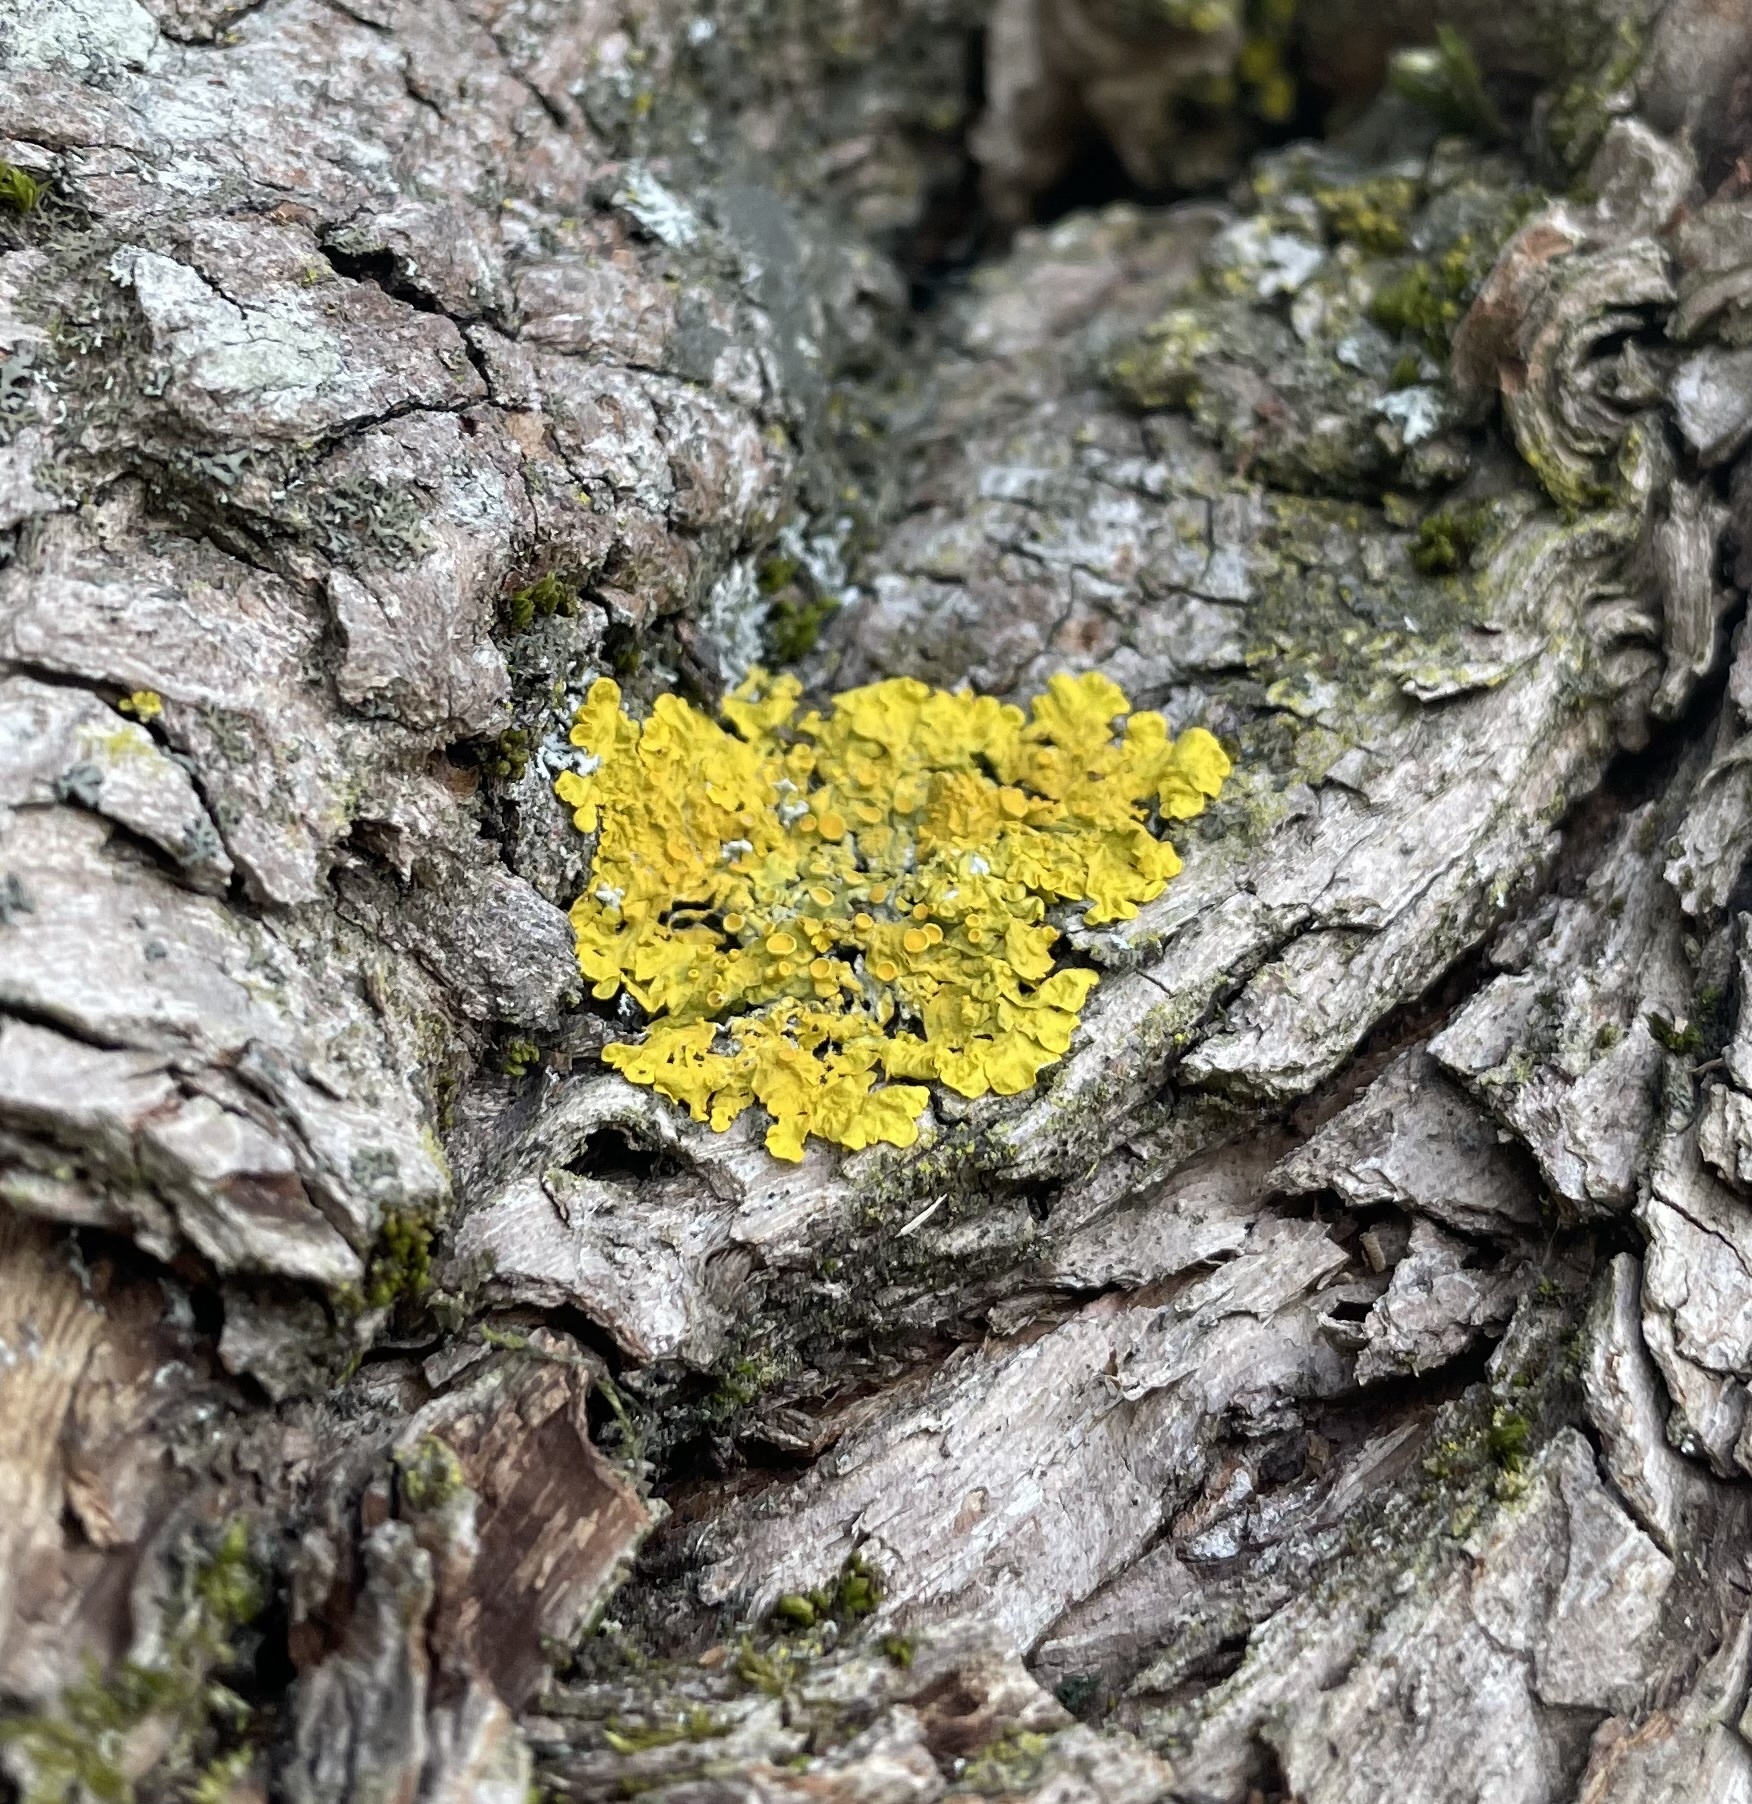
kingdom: Fungi
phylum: Ascomycota
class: Lecanoromycetes
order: Teloschistales
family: Teloschistaceae
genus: Xanthoria
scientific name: Xanthoria parietina
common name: Common orange lichen
